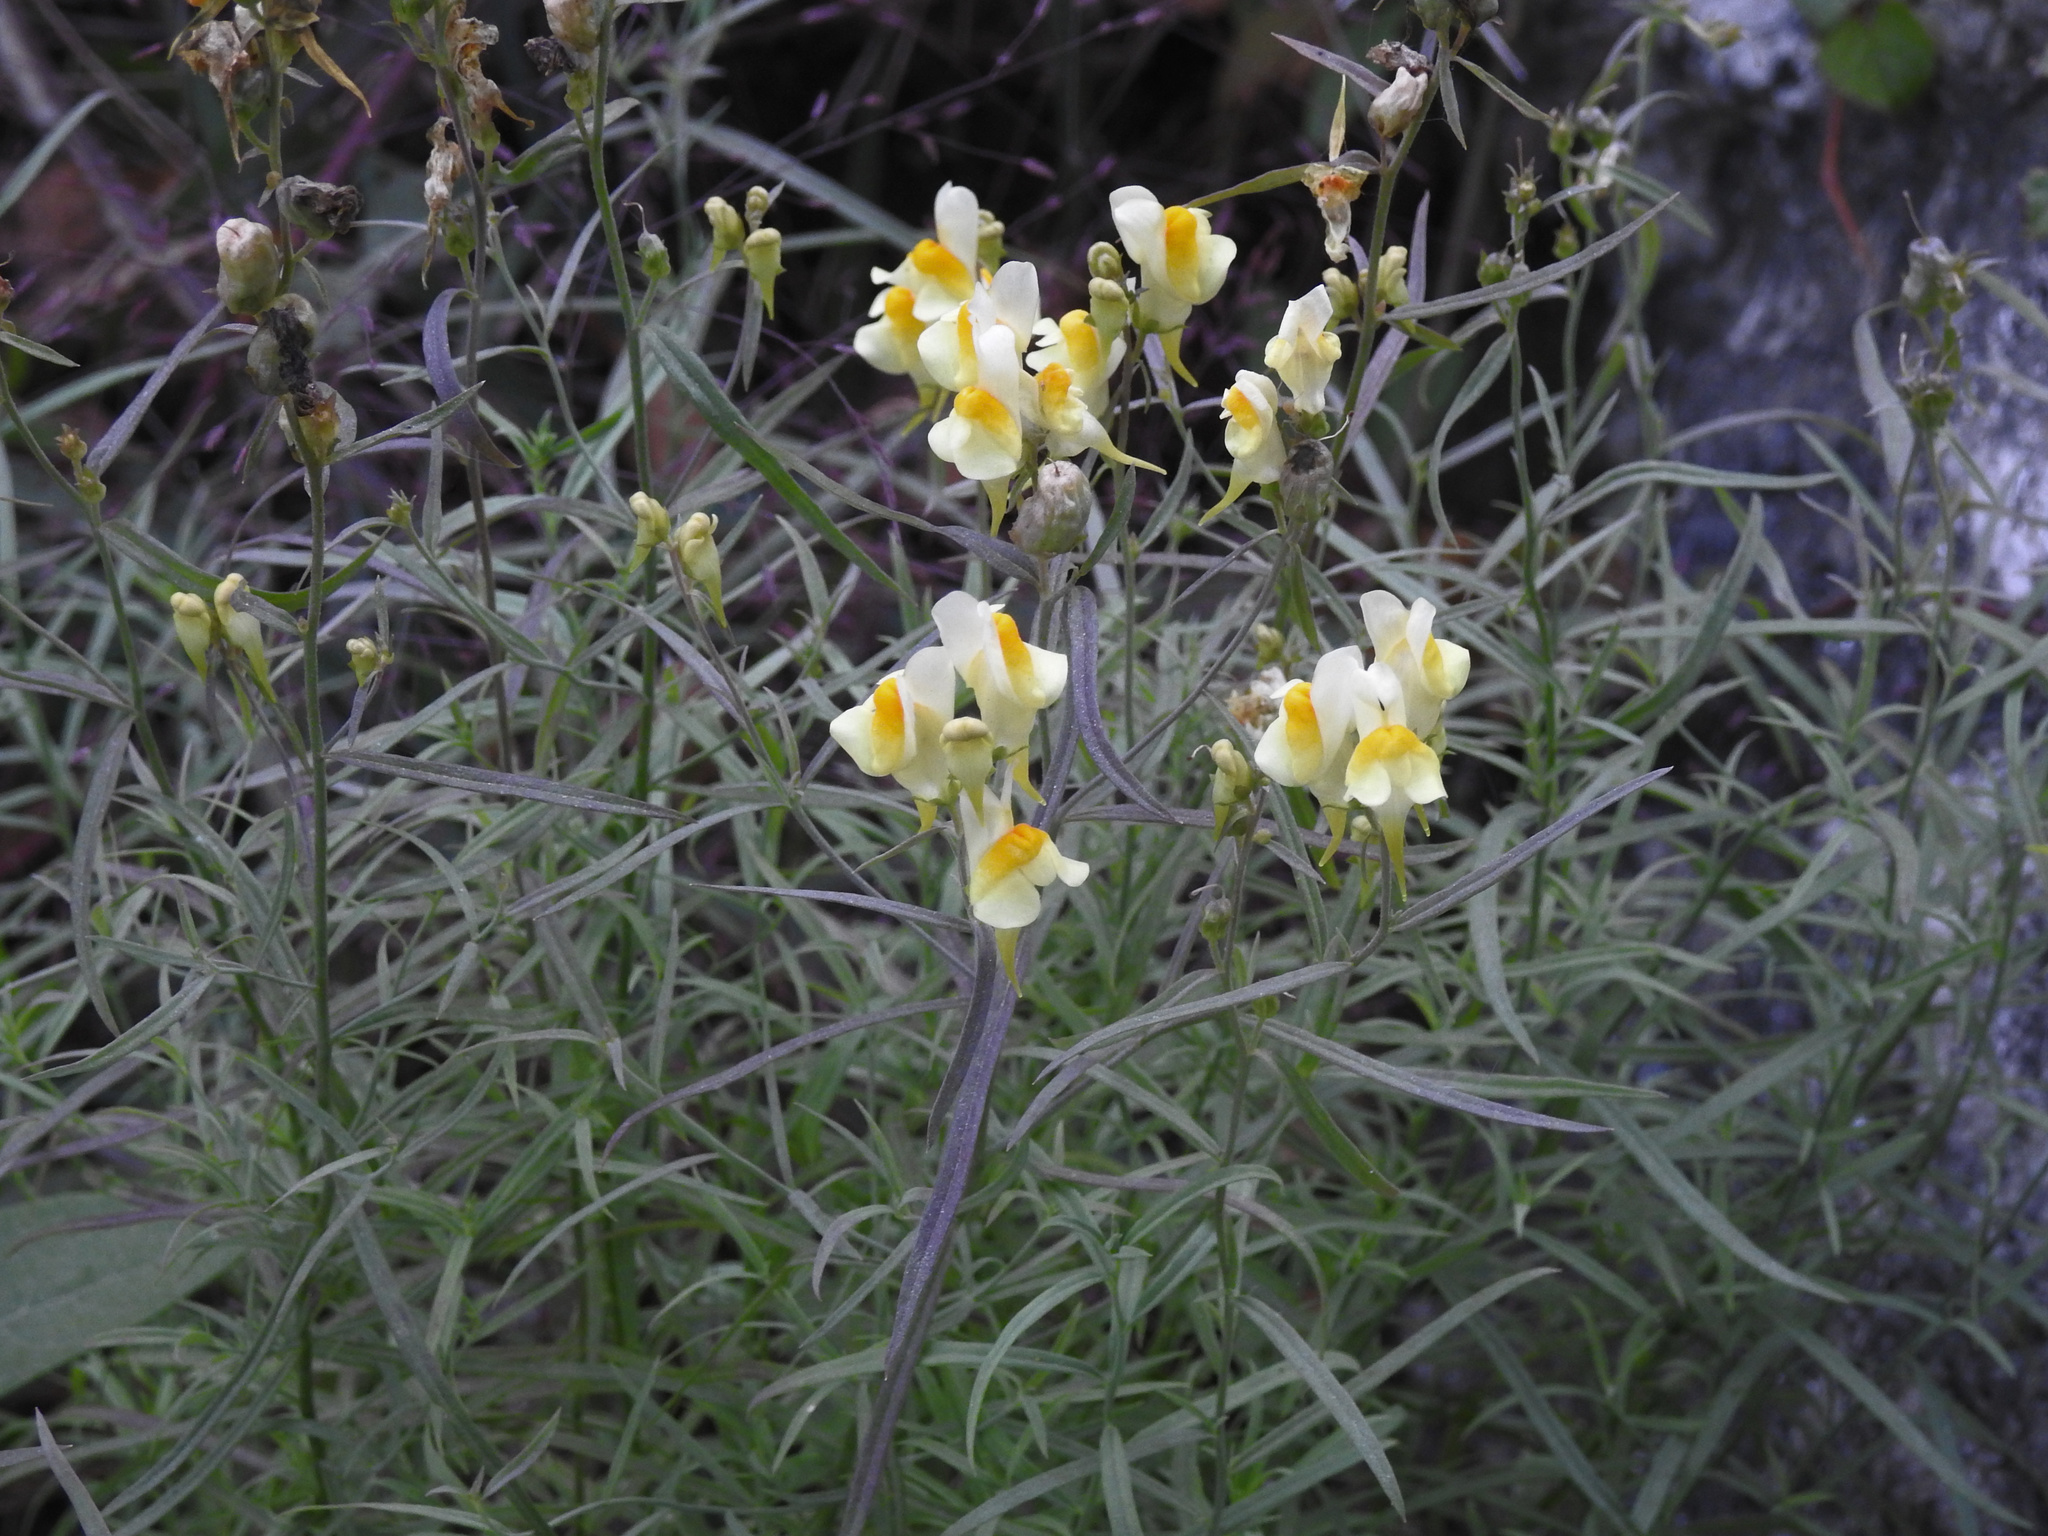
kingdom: Plantae
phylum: Tracheophyta
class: Magnoliopsida
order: Lamiales
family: Plantaginaceae
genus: Linaria
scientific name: Linaria vulgaris
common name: Butter and eggs
